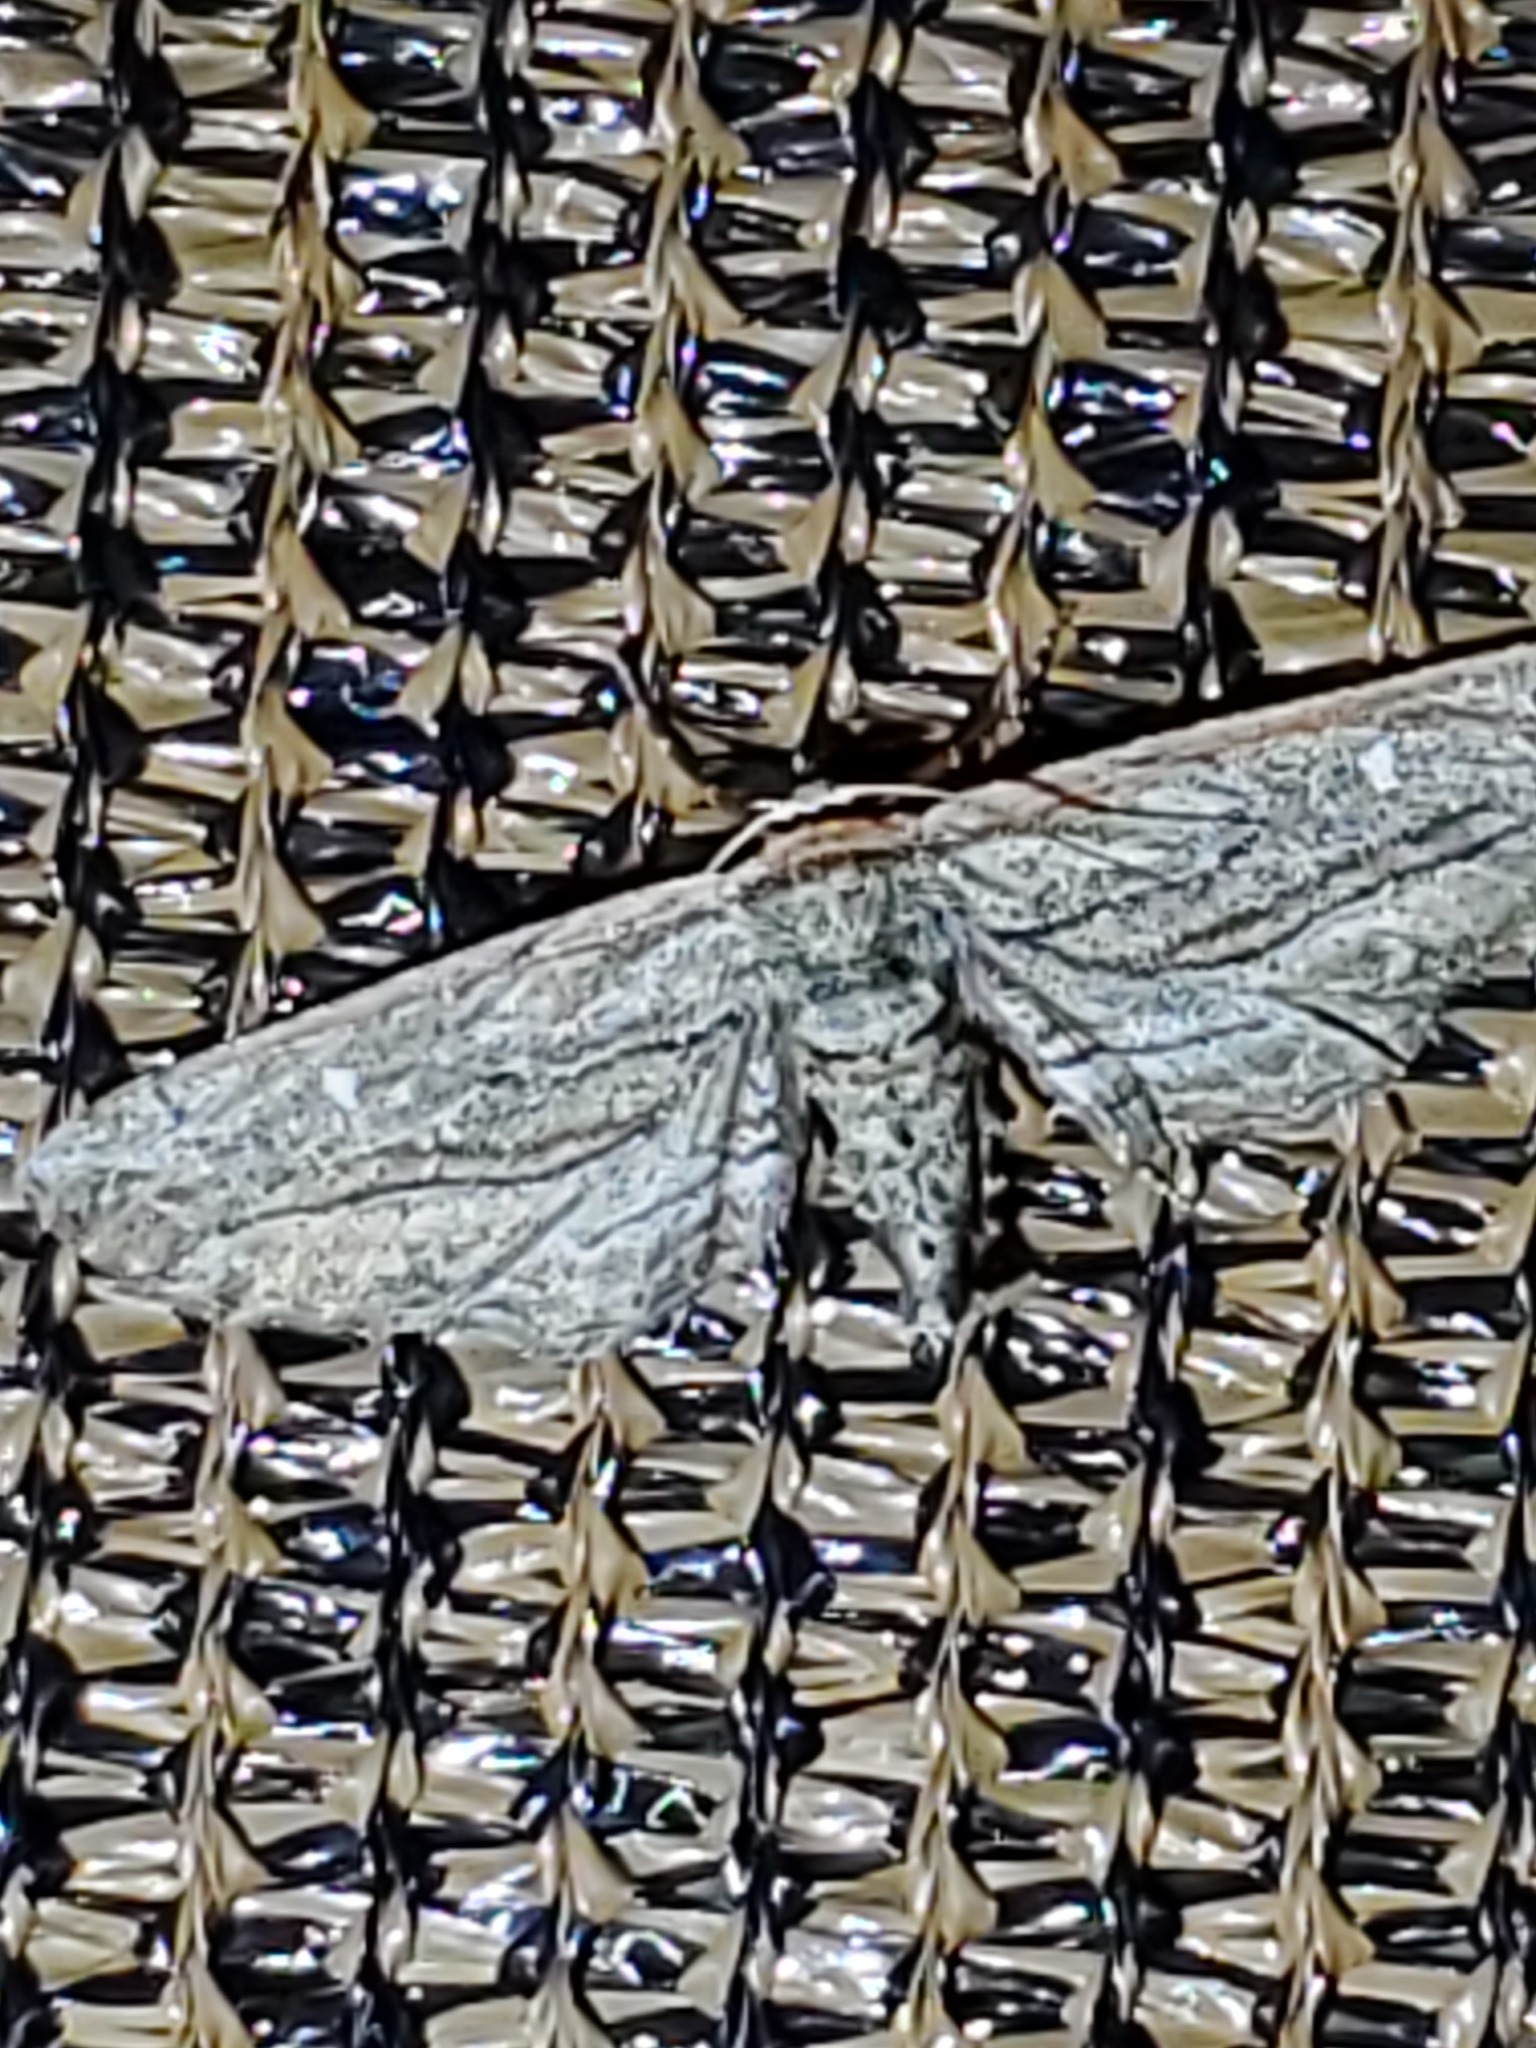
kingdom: Animalia
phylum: Arthropoda
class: Insecta
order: Lepidoptera
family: Geometridae
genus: Glena
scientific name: Glena quinquelinearia
